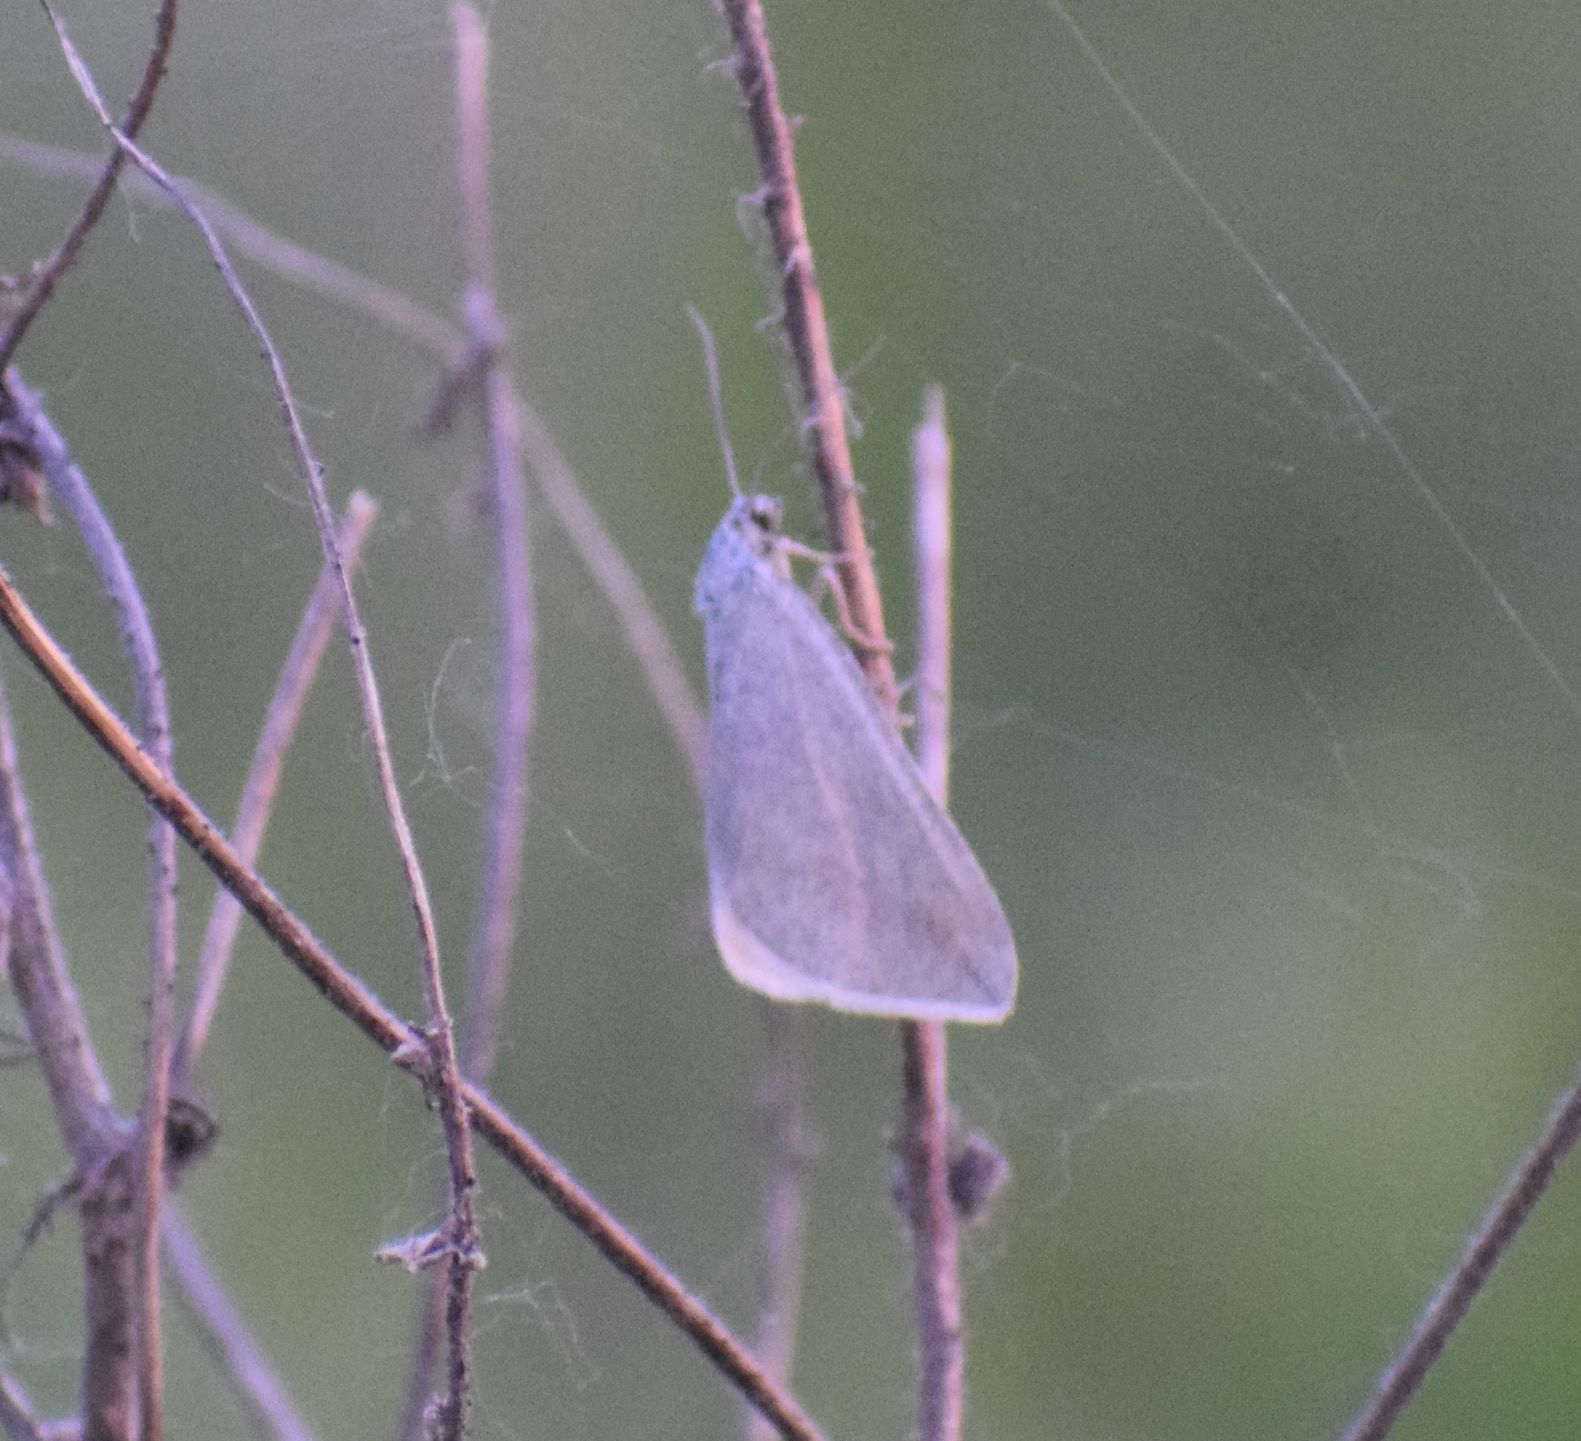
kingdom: Animalia
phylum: Arthropoda
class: Insecta
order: Lepidoptera
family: Geometridae
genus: Lithostege
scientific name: Lithostege griseata
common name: Grey carpet
